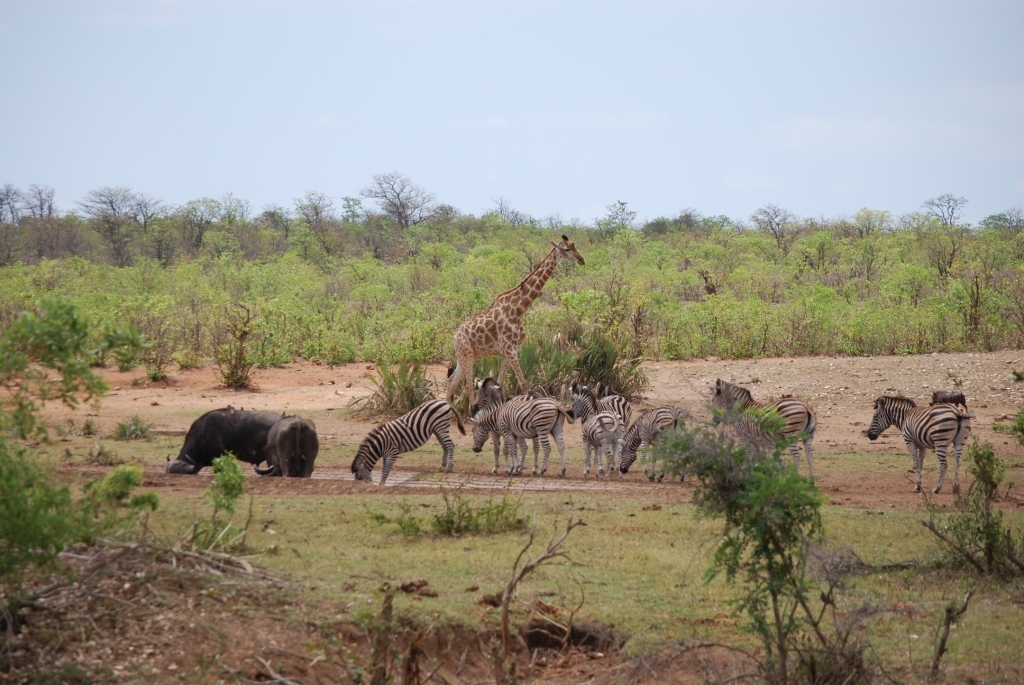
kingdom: Animalia
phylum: Chordata
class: Mammalia
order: Perissodactyla
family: Equidae
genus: Equus
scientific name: Equus quagga
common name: Plains zebra
